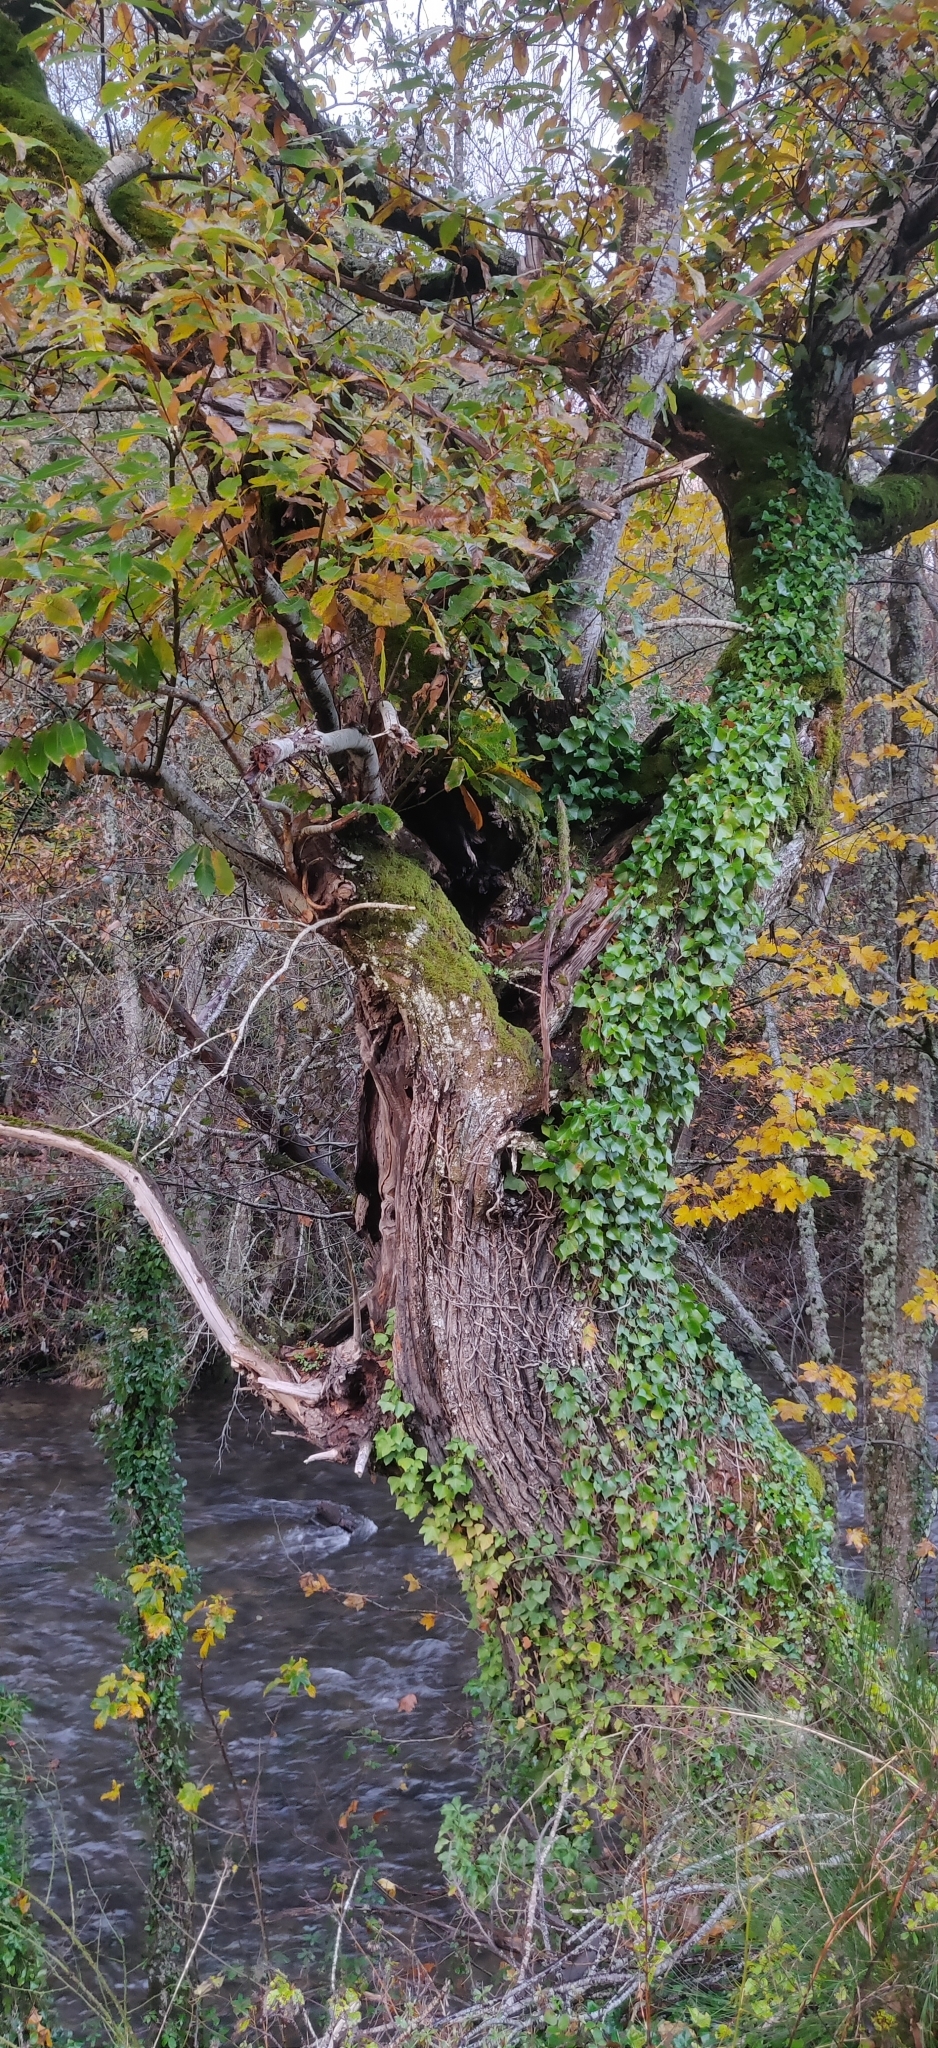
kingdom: Plantae
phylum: Tracheophyta
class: Magnoliopsida
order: Fagales
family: Fagaceae
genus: Castanea
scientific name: Castanea sativa
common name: Sweet chestnut
